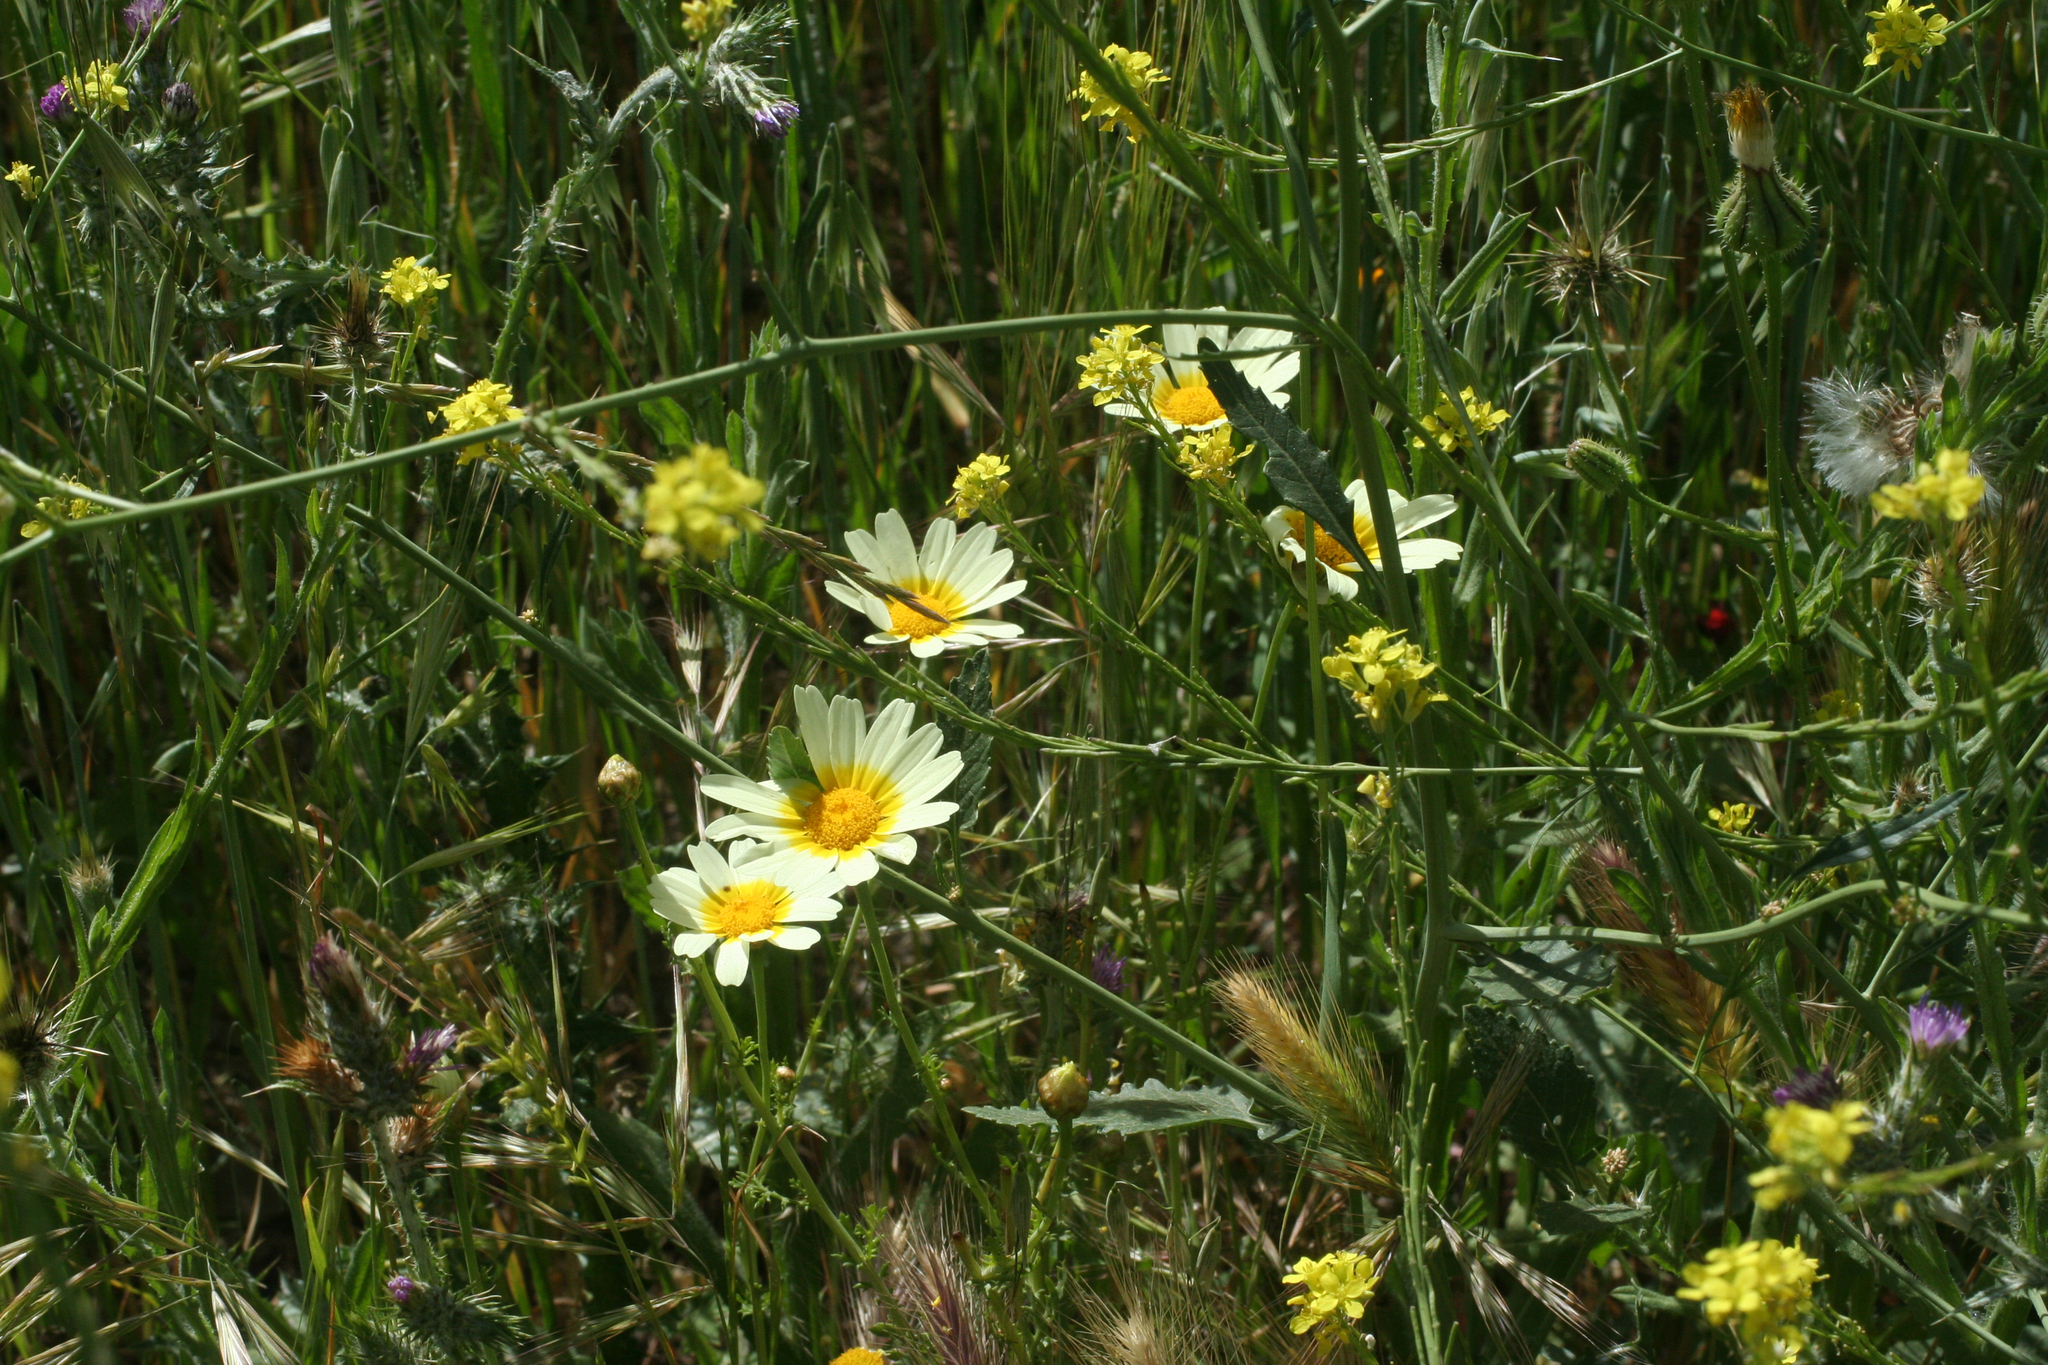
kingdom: Plantae
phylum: Tracheophyta
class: Magnoliopsida
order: Asterales
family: Asteraceae
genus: Glebionis
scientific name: Glebionis coronaria
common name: Crowndaisy
